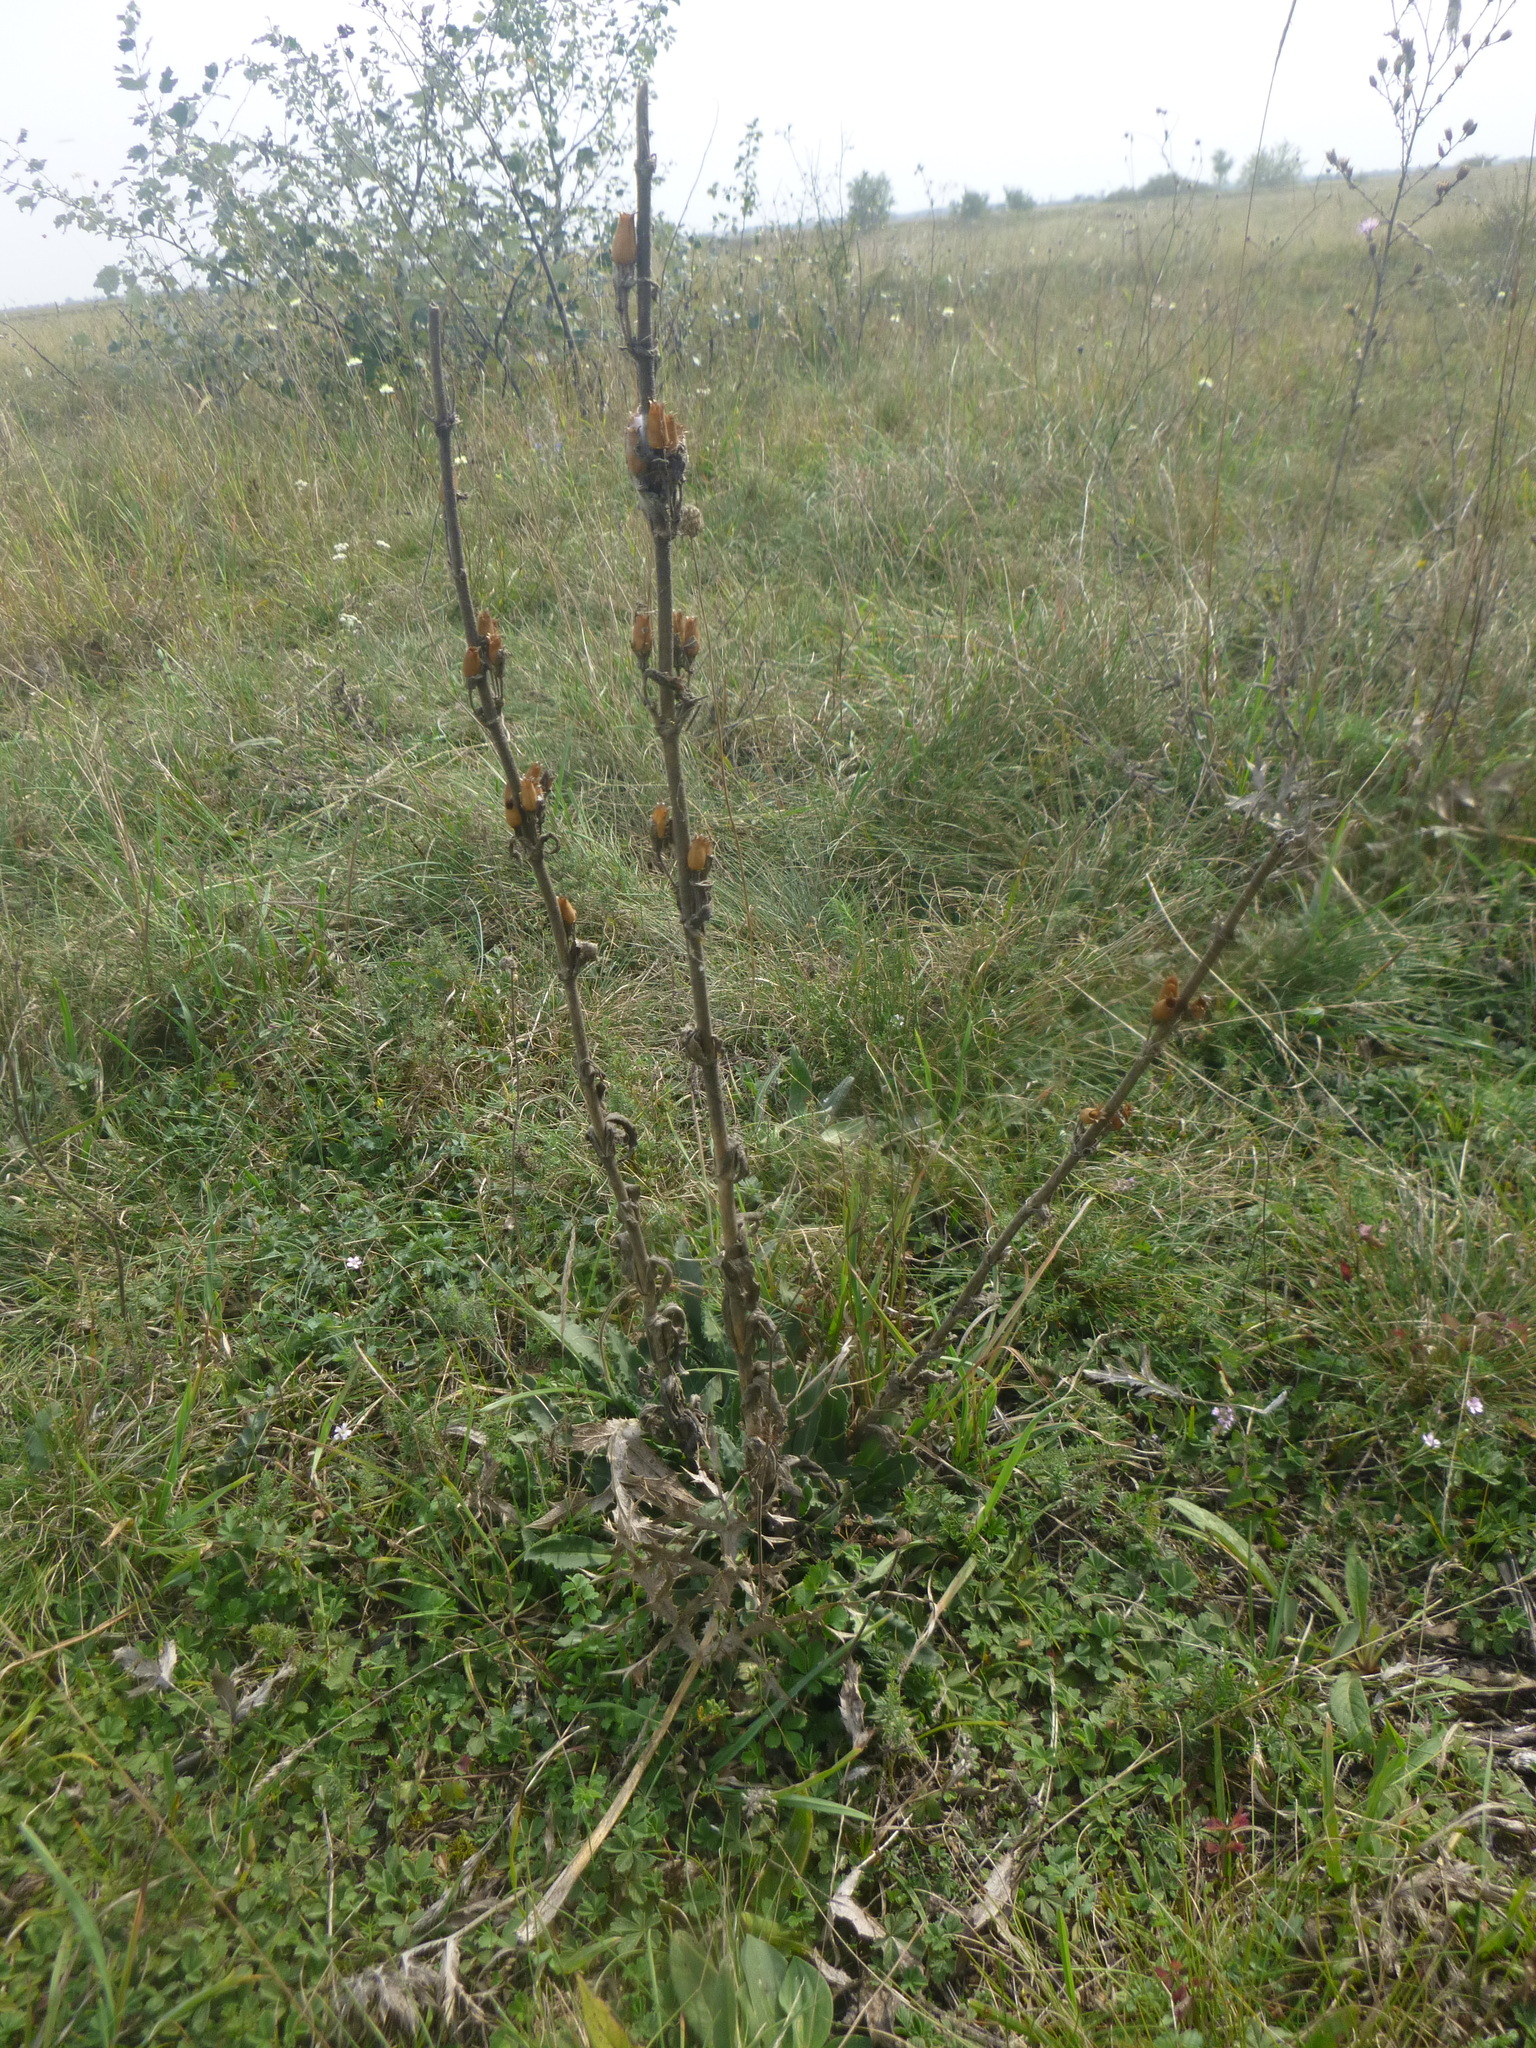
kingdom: Plantae
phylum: Tracheophyta
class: Magnoliopsida
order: Caryophyllales
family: Caryophyllaceae
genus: Silene
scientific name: Silene viscosa
